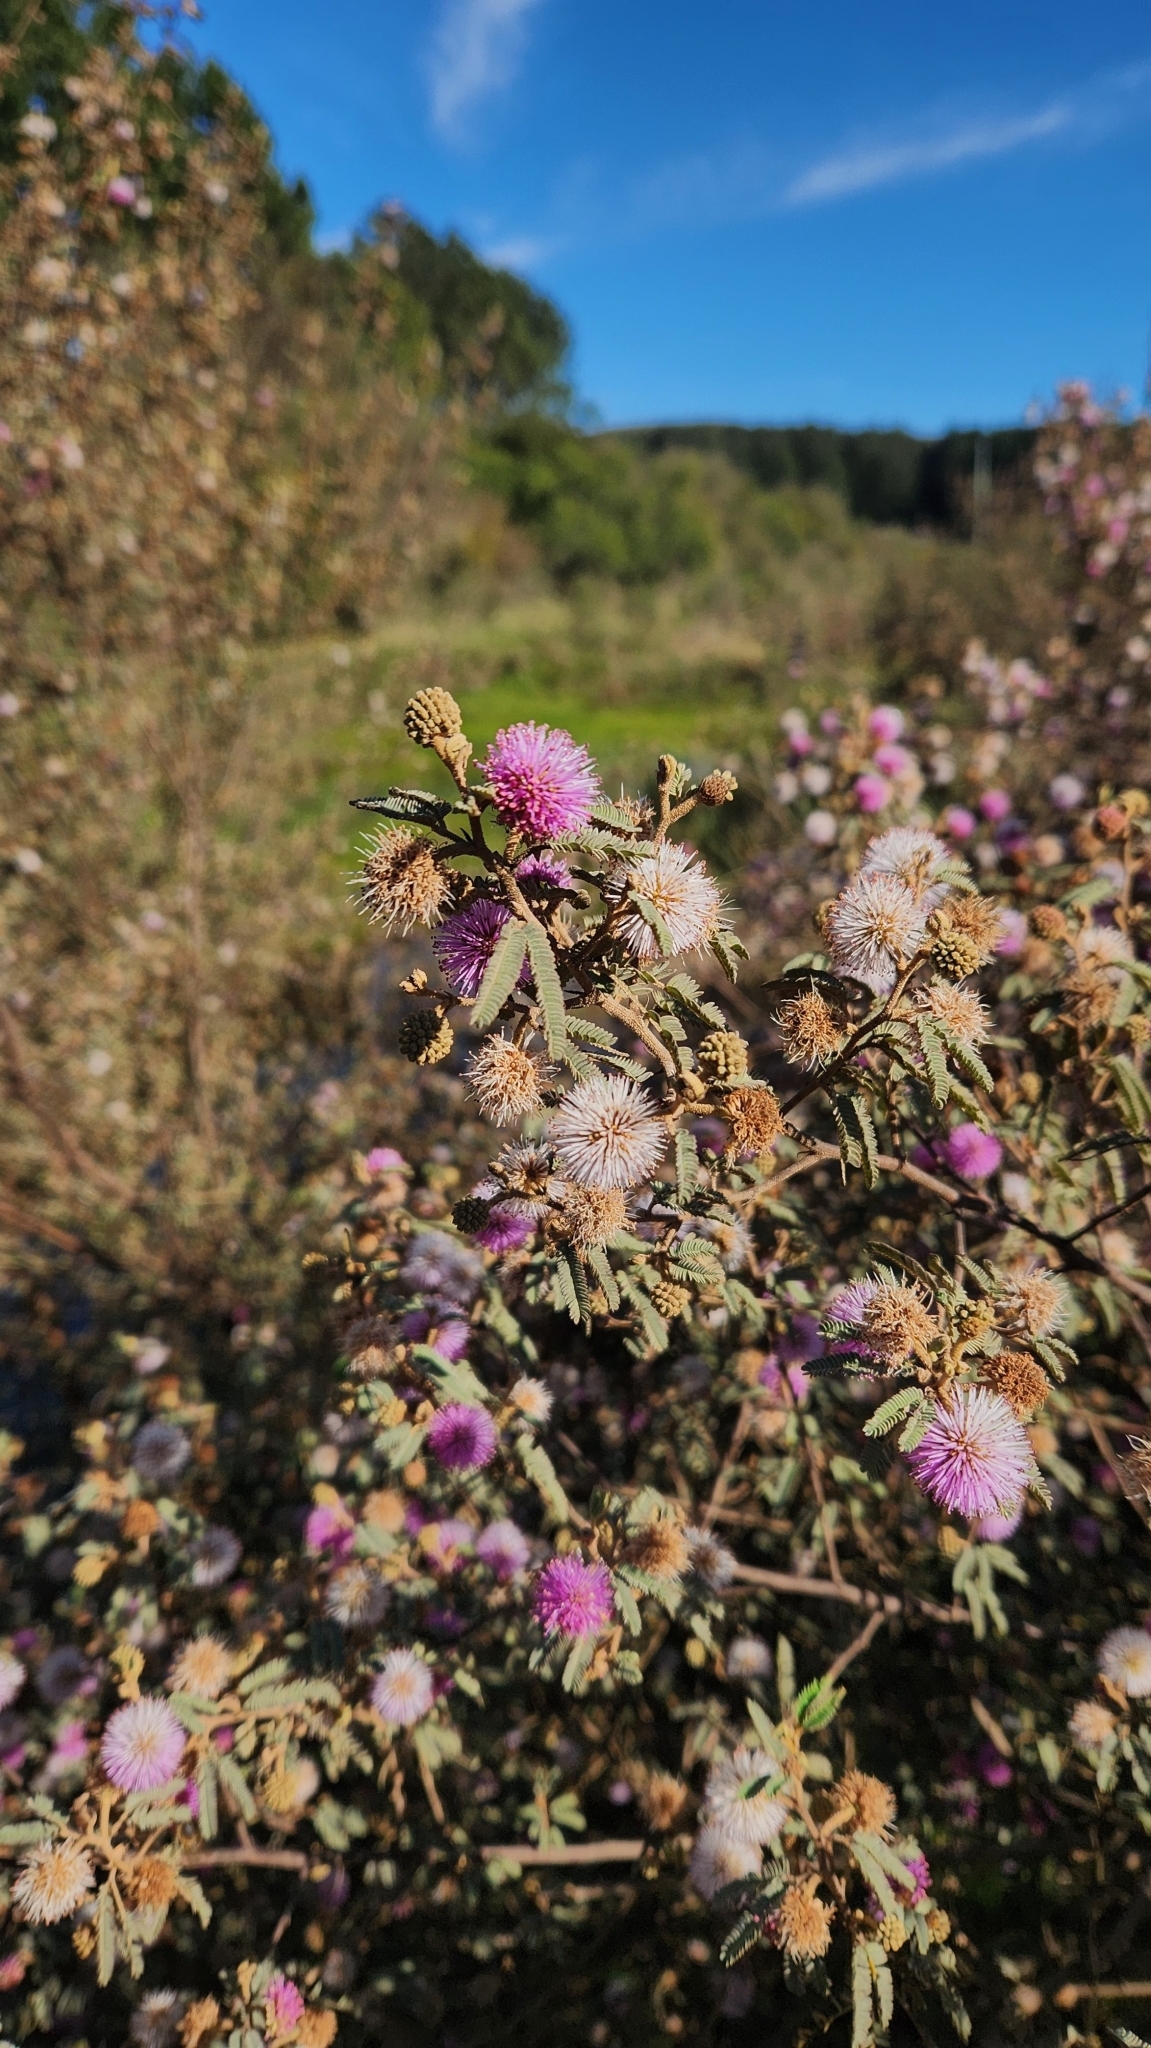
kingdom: Plantae
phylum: Tracheophyta
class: Magnoliopsida
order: Fabales
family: Fabaceae
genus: Mimosa
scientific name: Mimosa incana
